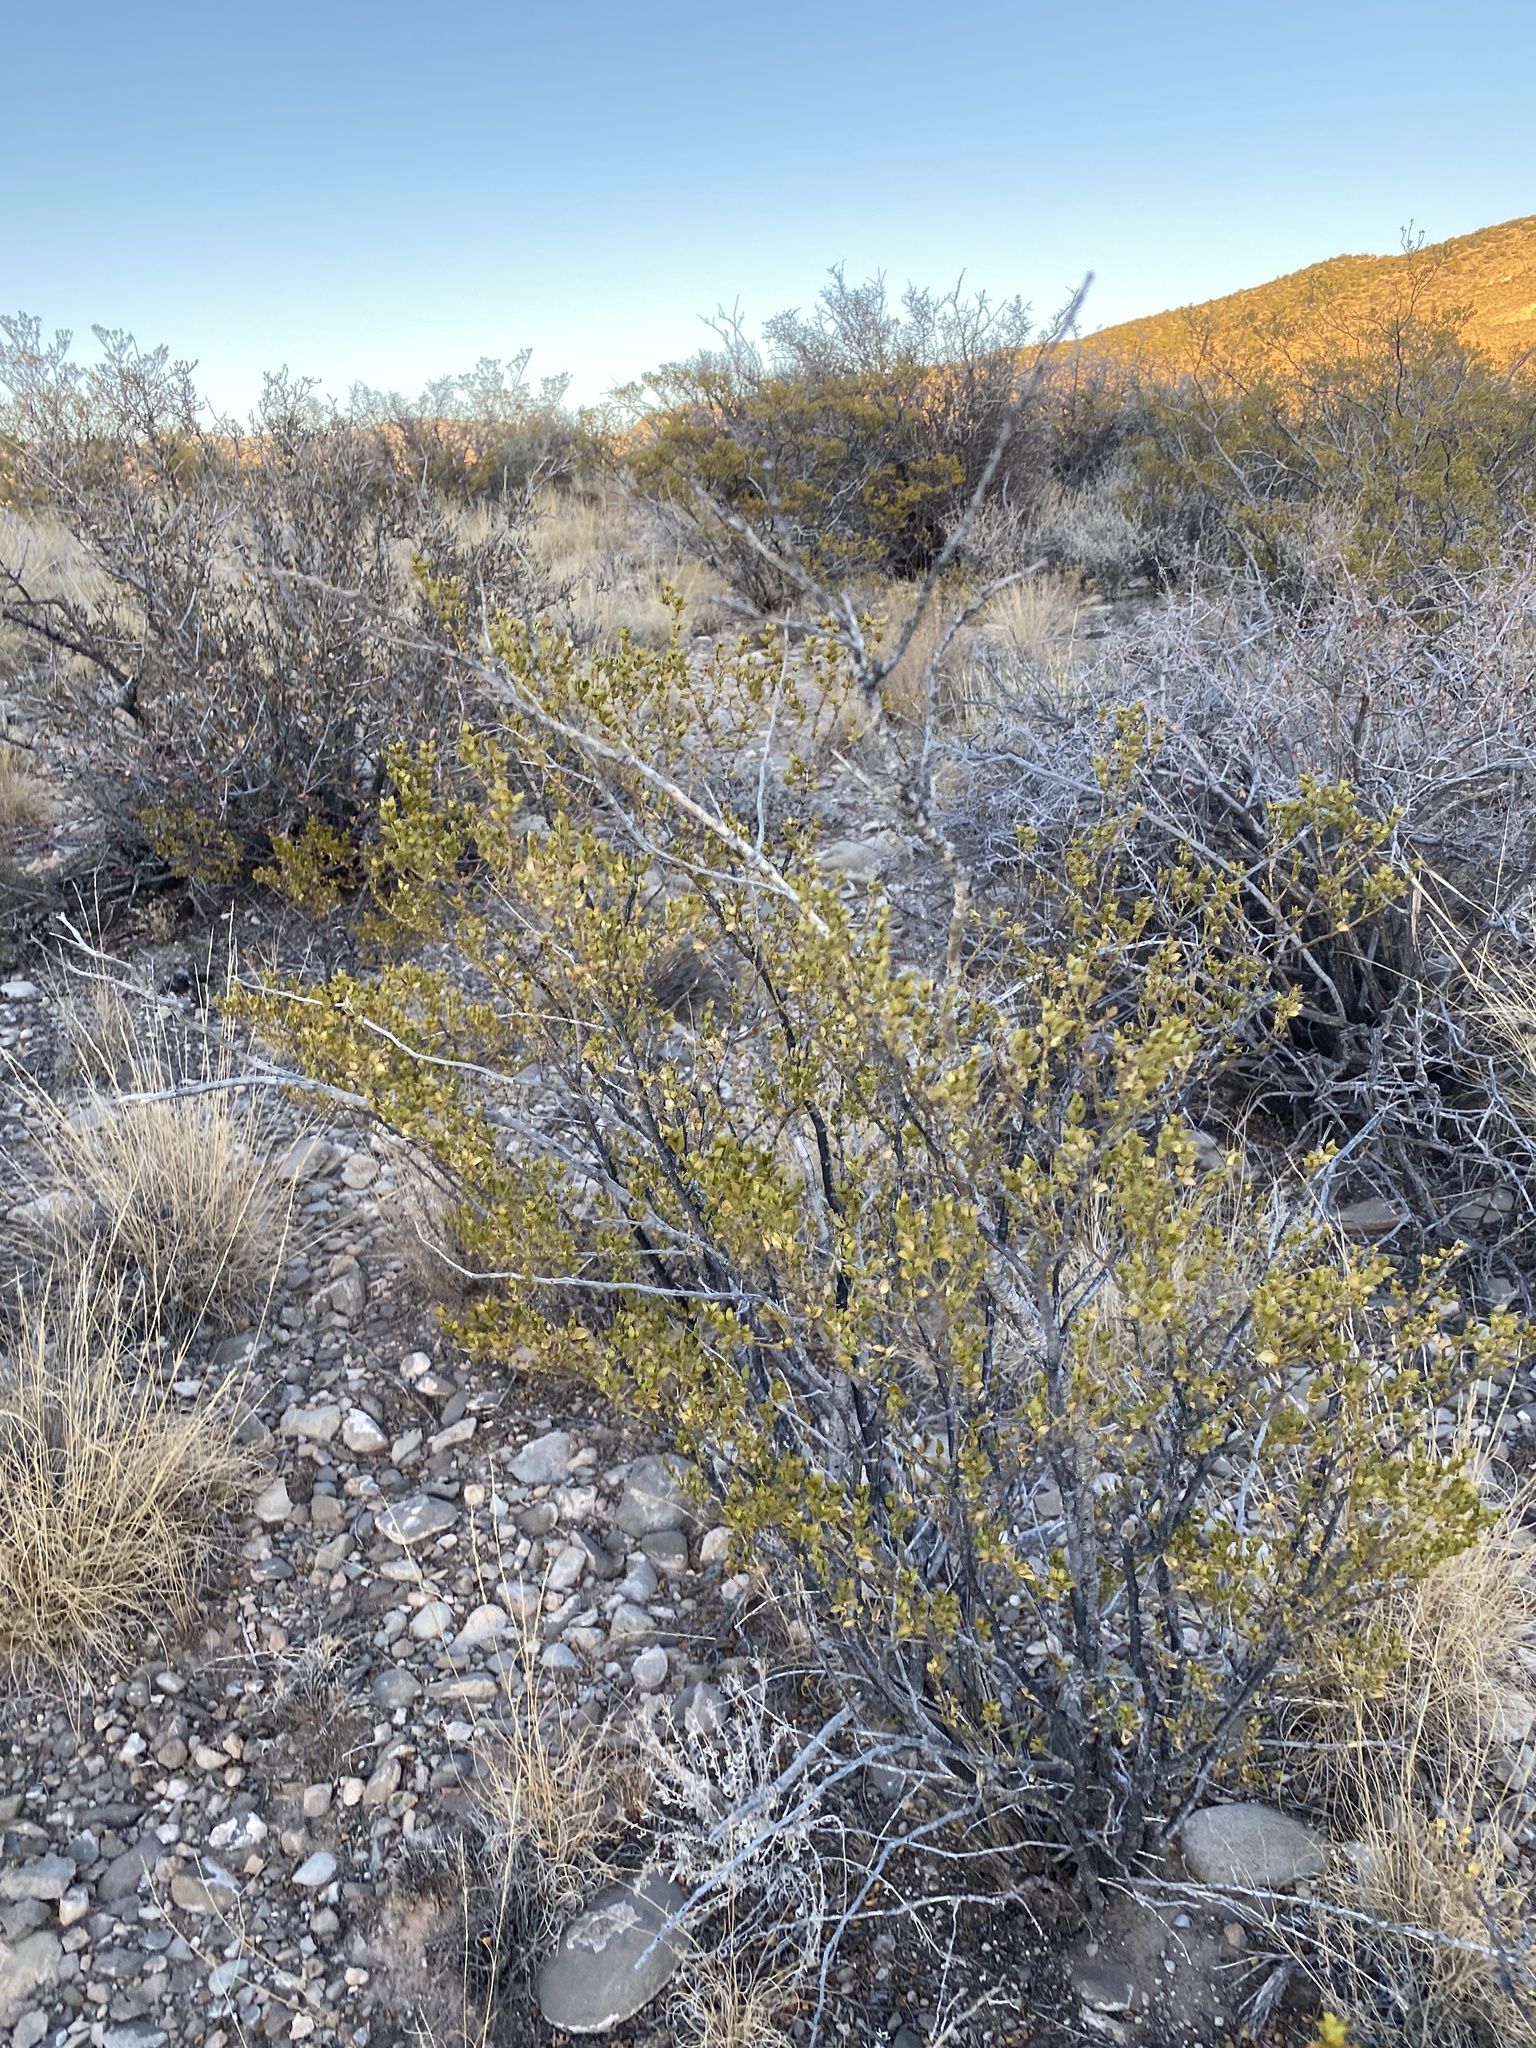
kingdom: Plantae
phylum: Tracheophyta
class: Magnoliopsida
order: Zygophyllales
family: Zygophyllaceae
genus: Larrea
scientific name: Larrea tridentata
